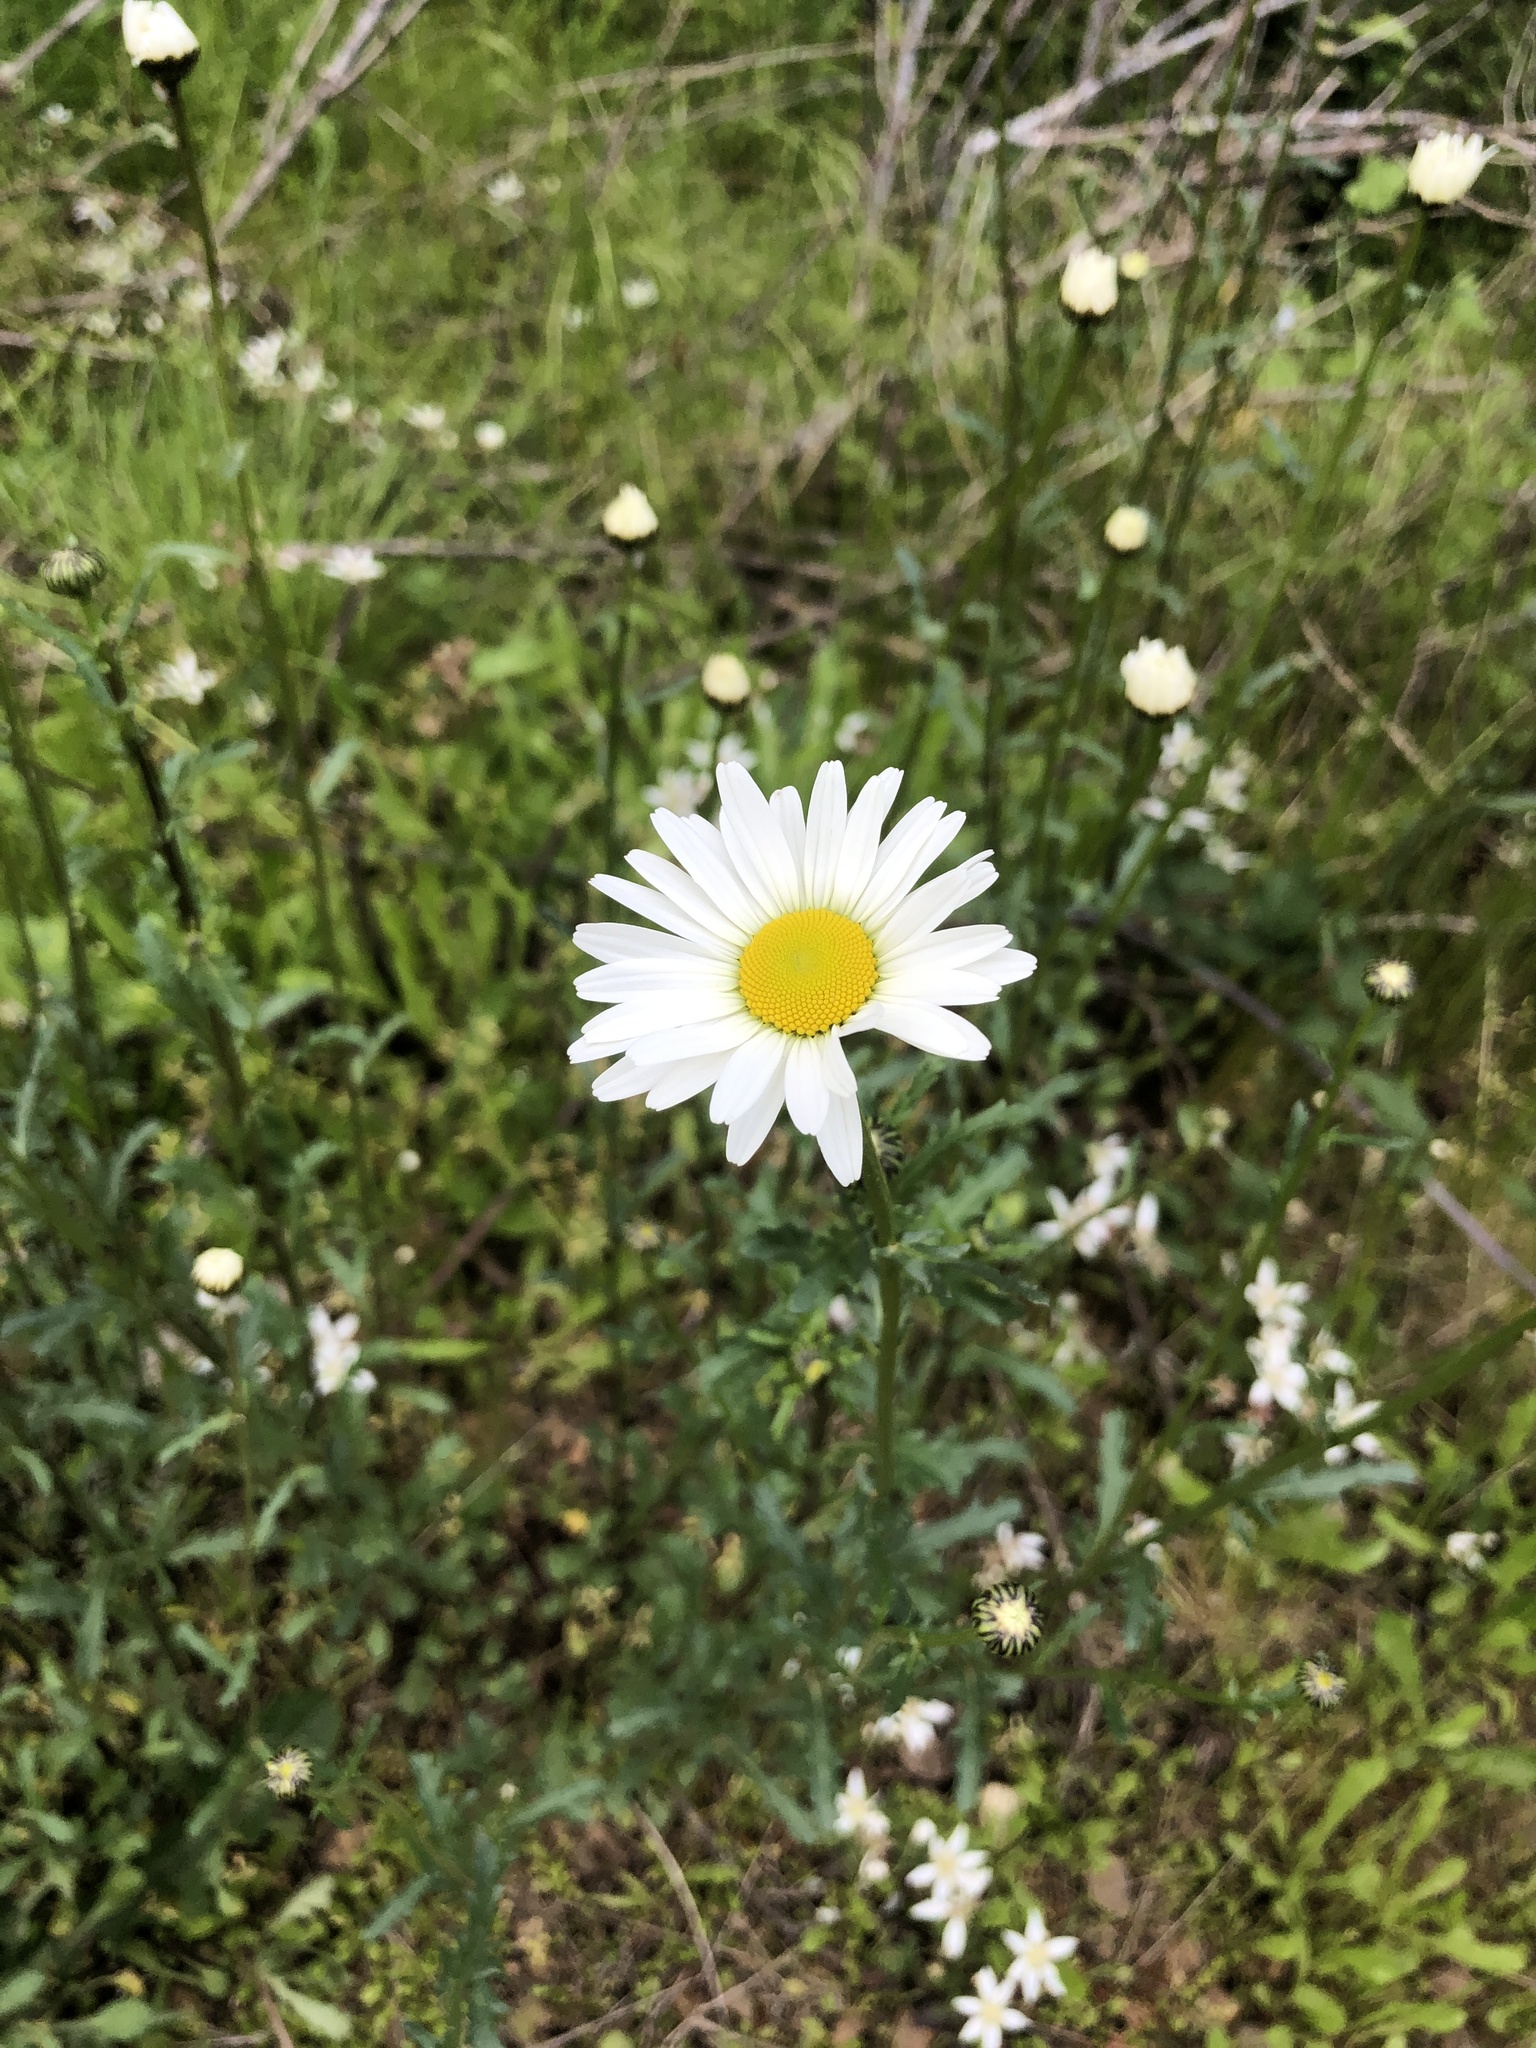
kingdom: Plantae
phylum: Tracheophyta
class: Magnoliopsida
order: Asterales
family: Asteraceae
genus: Leucanthemum
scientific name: Leucanthemum vulgare
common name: Oxeye daisy
